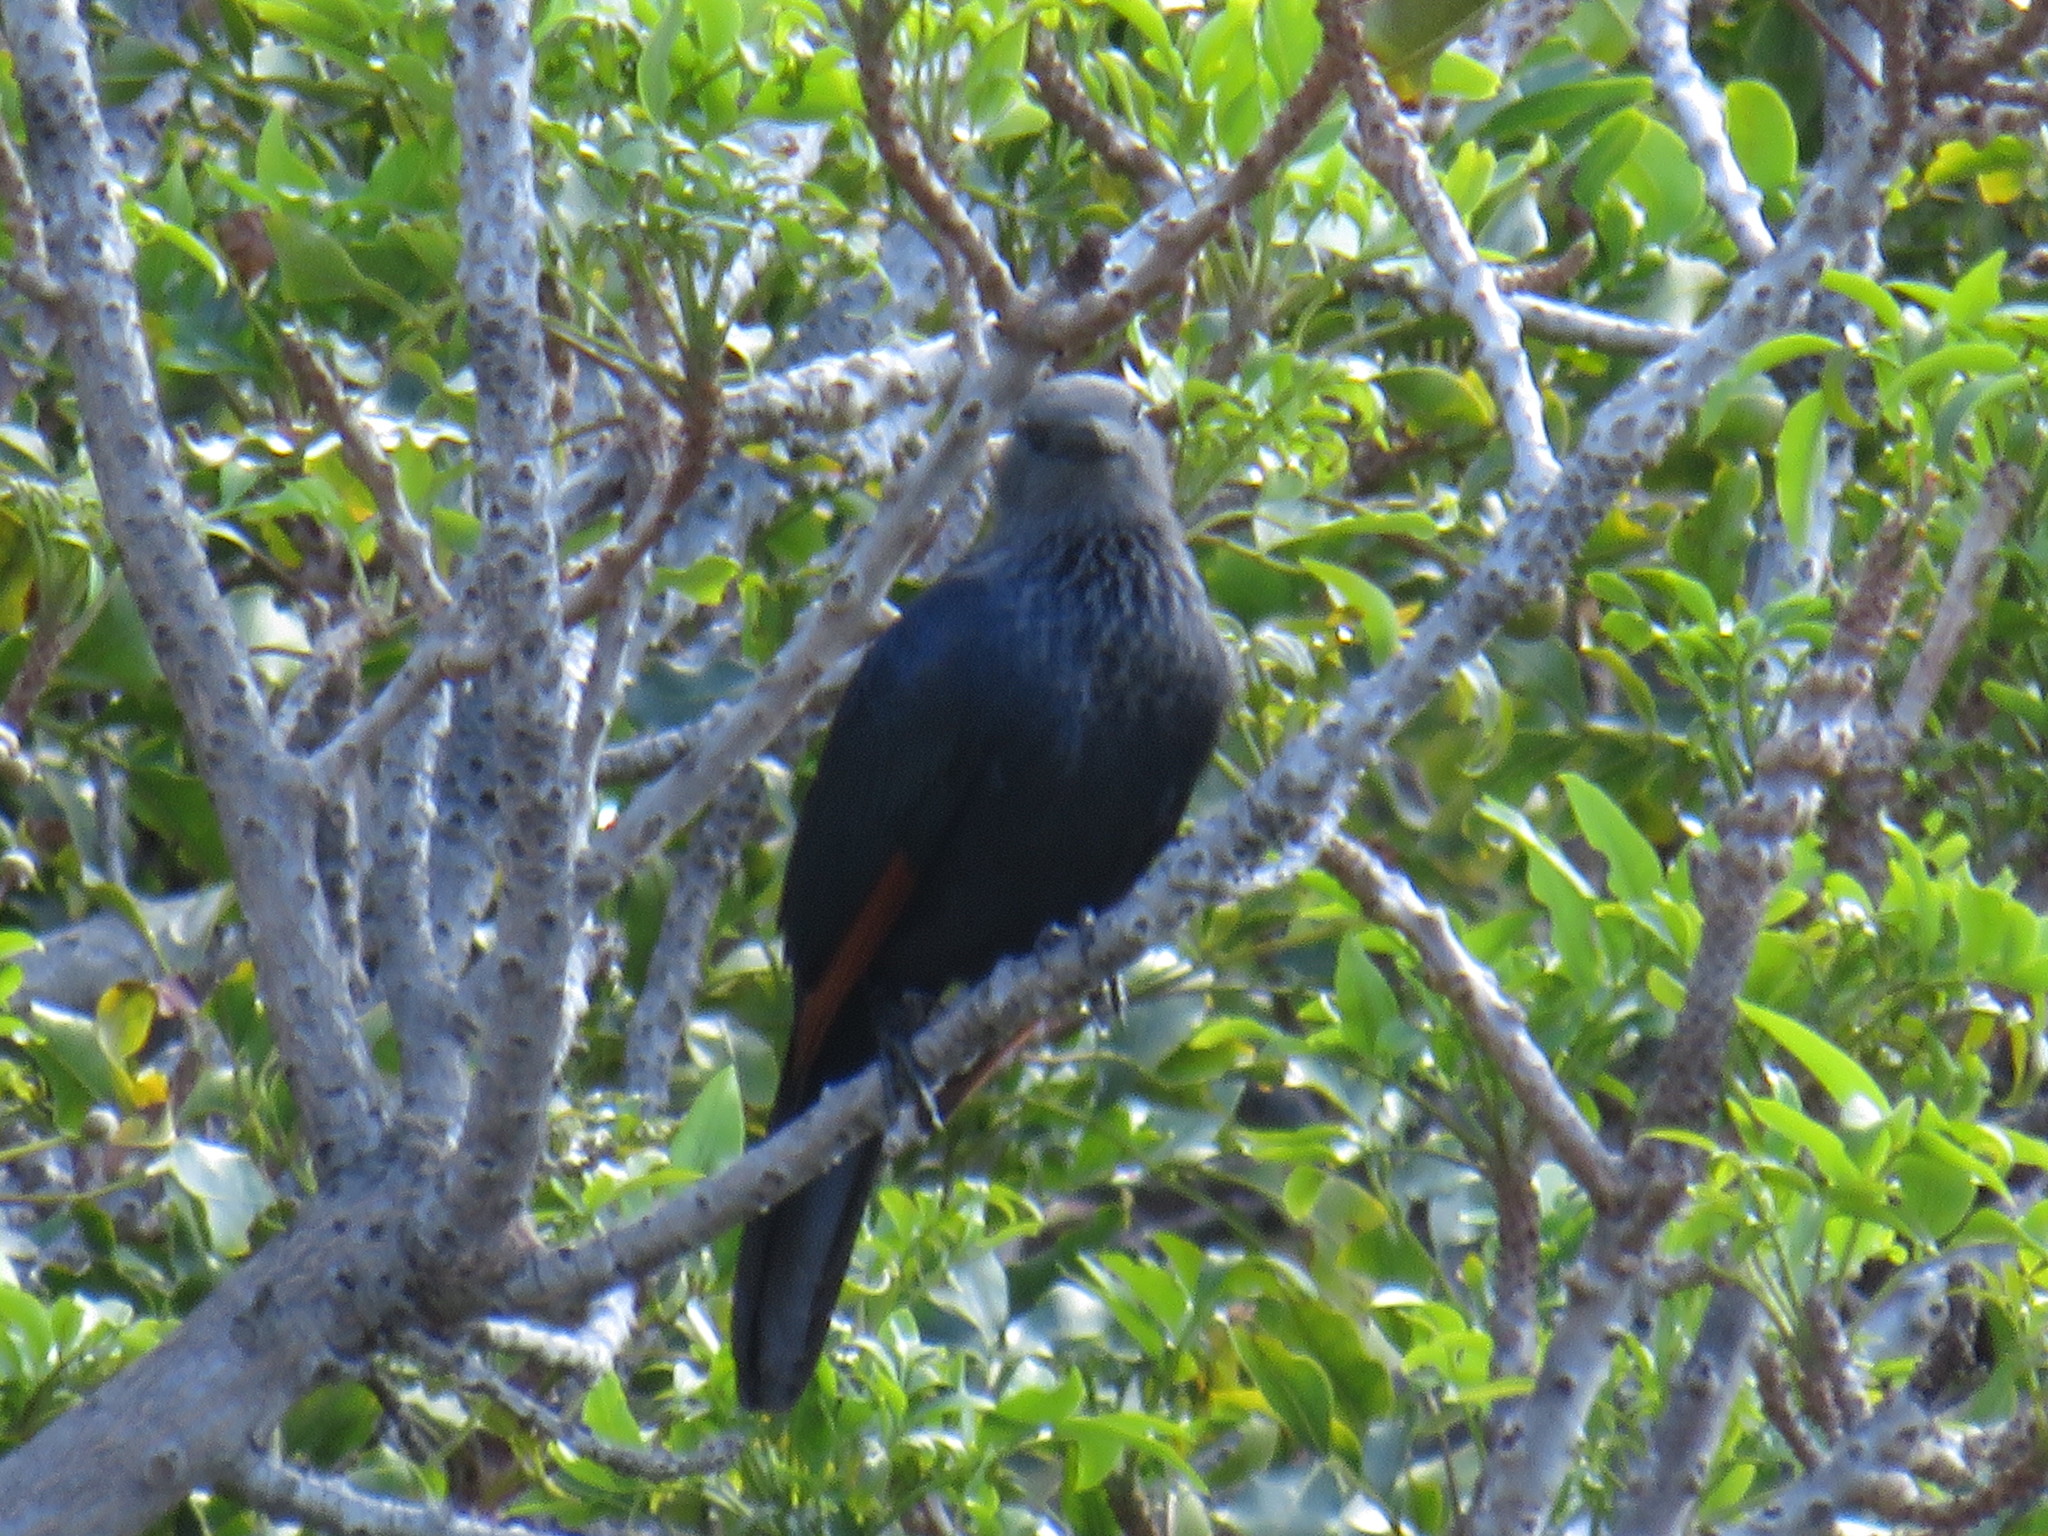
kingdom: Animalia
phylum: Chordata
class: Aves
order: Passeriformes
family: Sturnidae
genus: Onychognathus
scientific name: Onychognathus morio
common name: Red-winged starling
